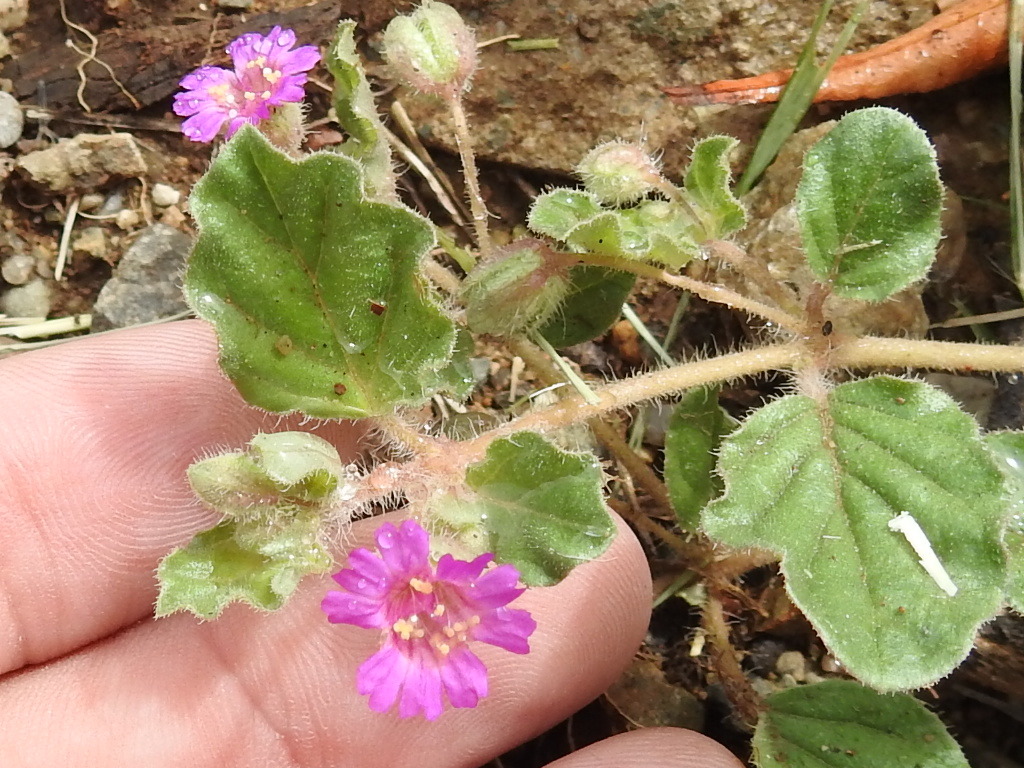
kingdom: Plantae
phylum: Tracheophyta
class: Magnoliopsida
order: Caryophyllales
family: Nyctaginaceae
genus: Allionia
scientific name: Allionia incarnata
